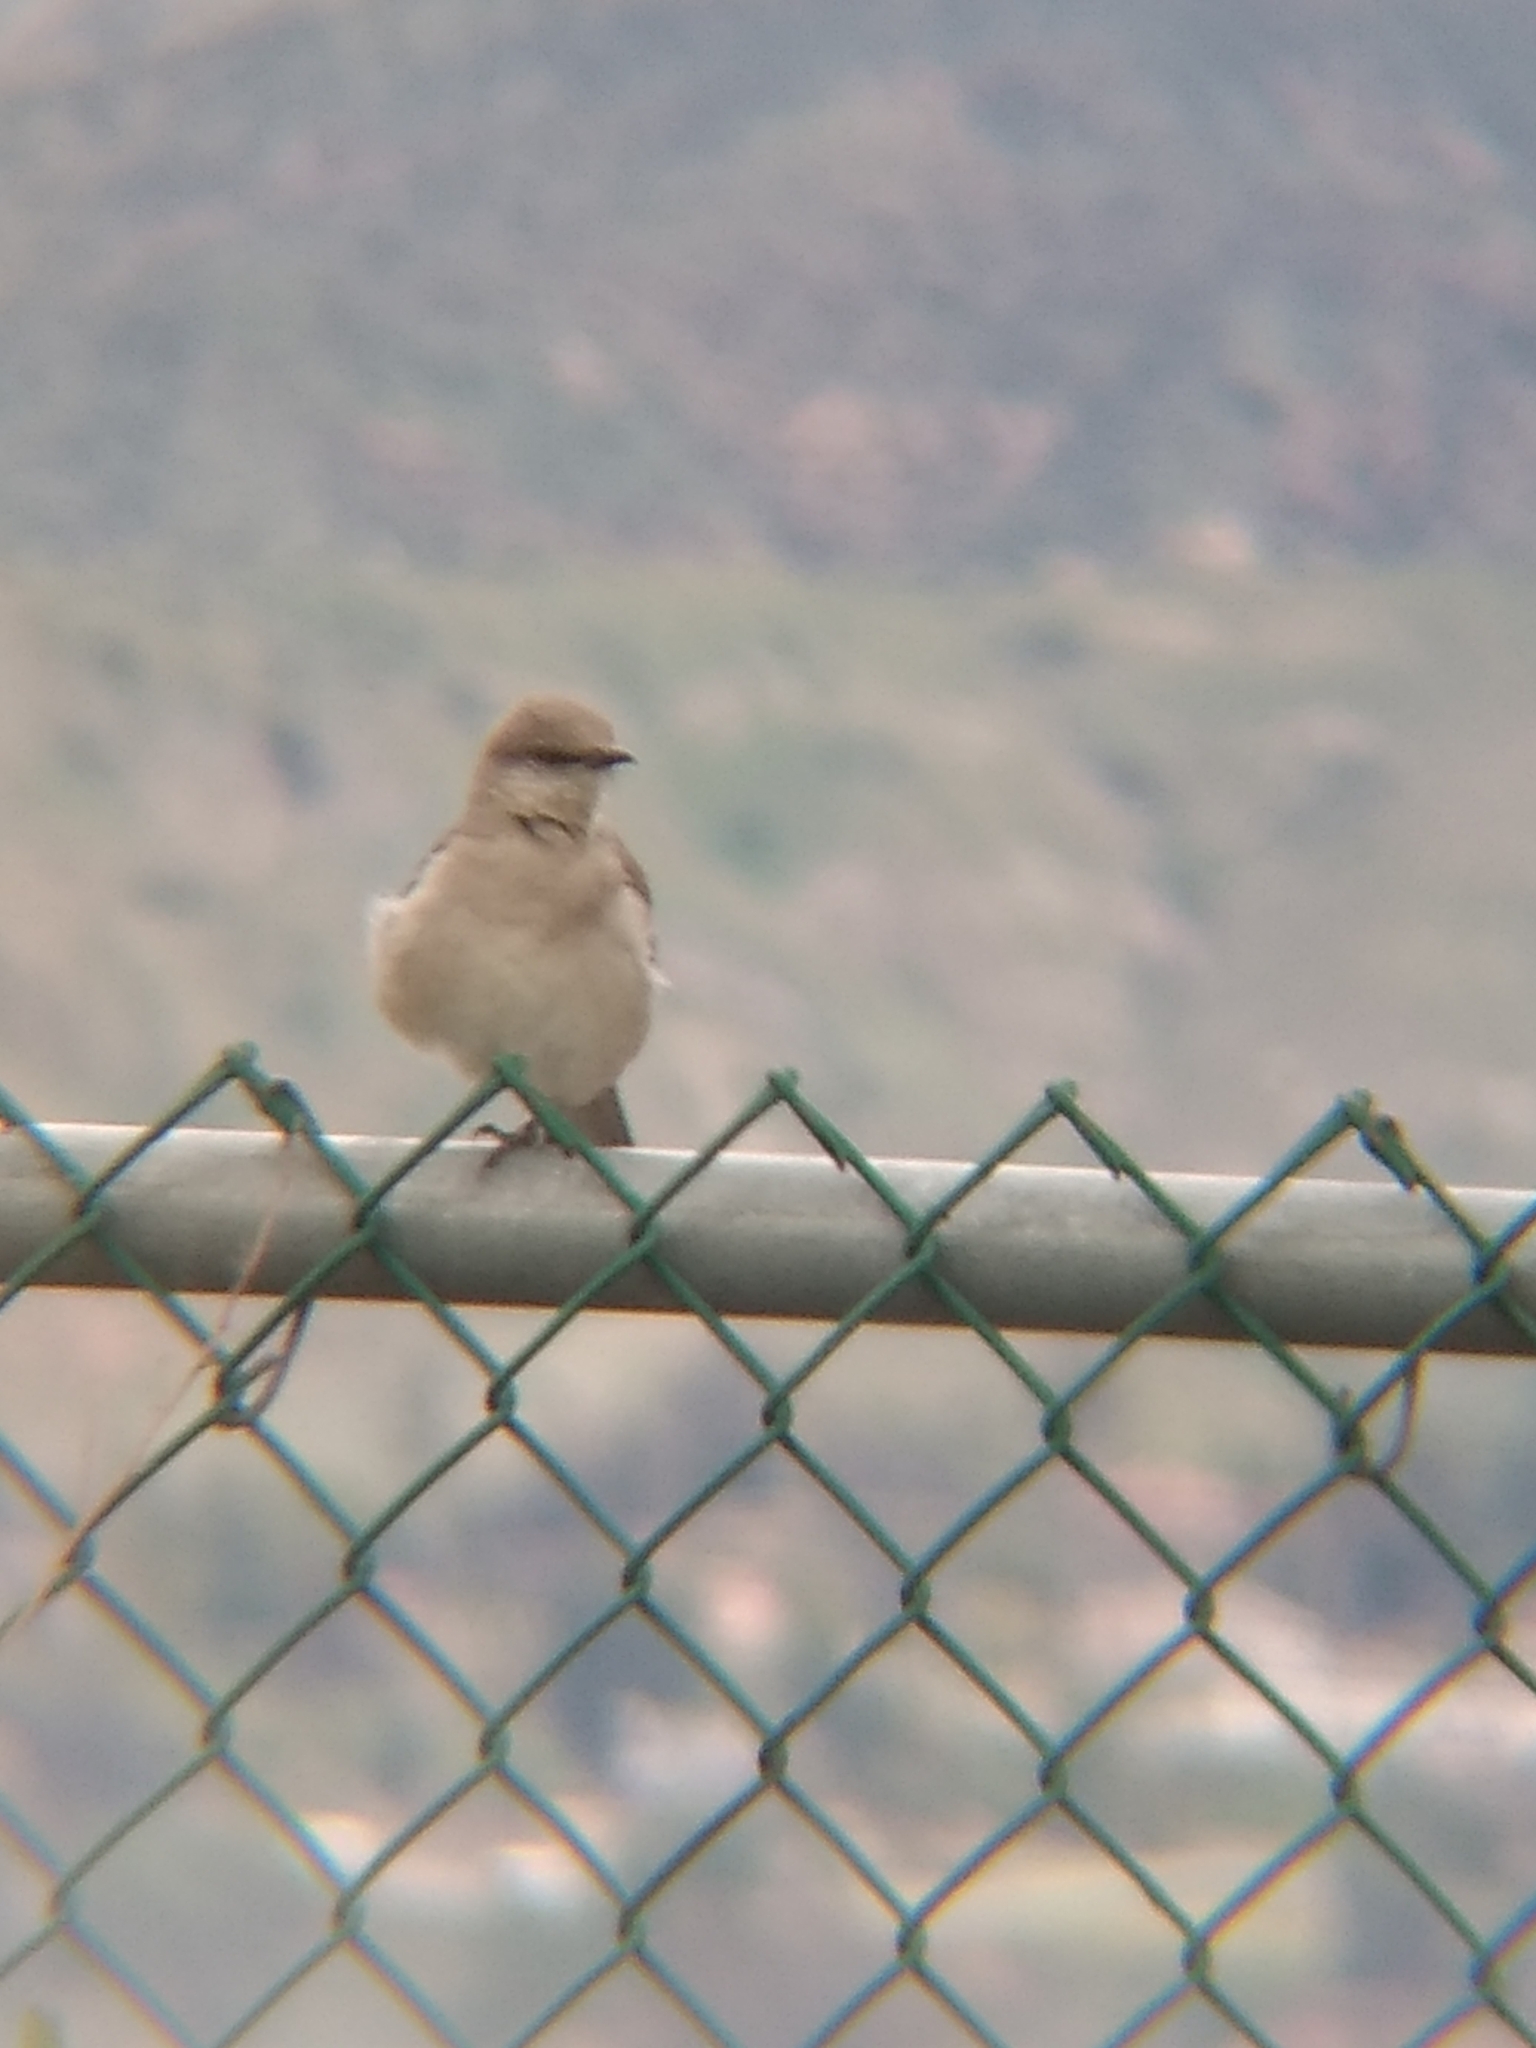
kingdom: Animalia
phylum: Chordata
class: Aves
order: Passeriformes
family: Mimidae
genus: Mimus
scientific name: Mimus polyglottos
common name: Northern mockingbird
